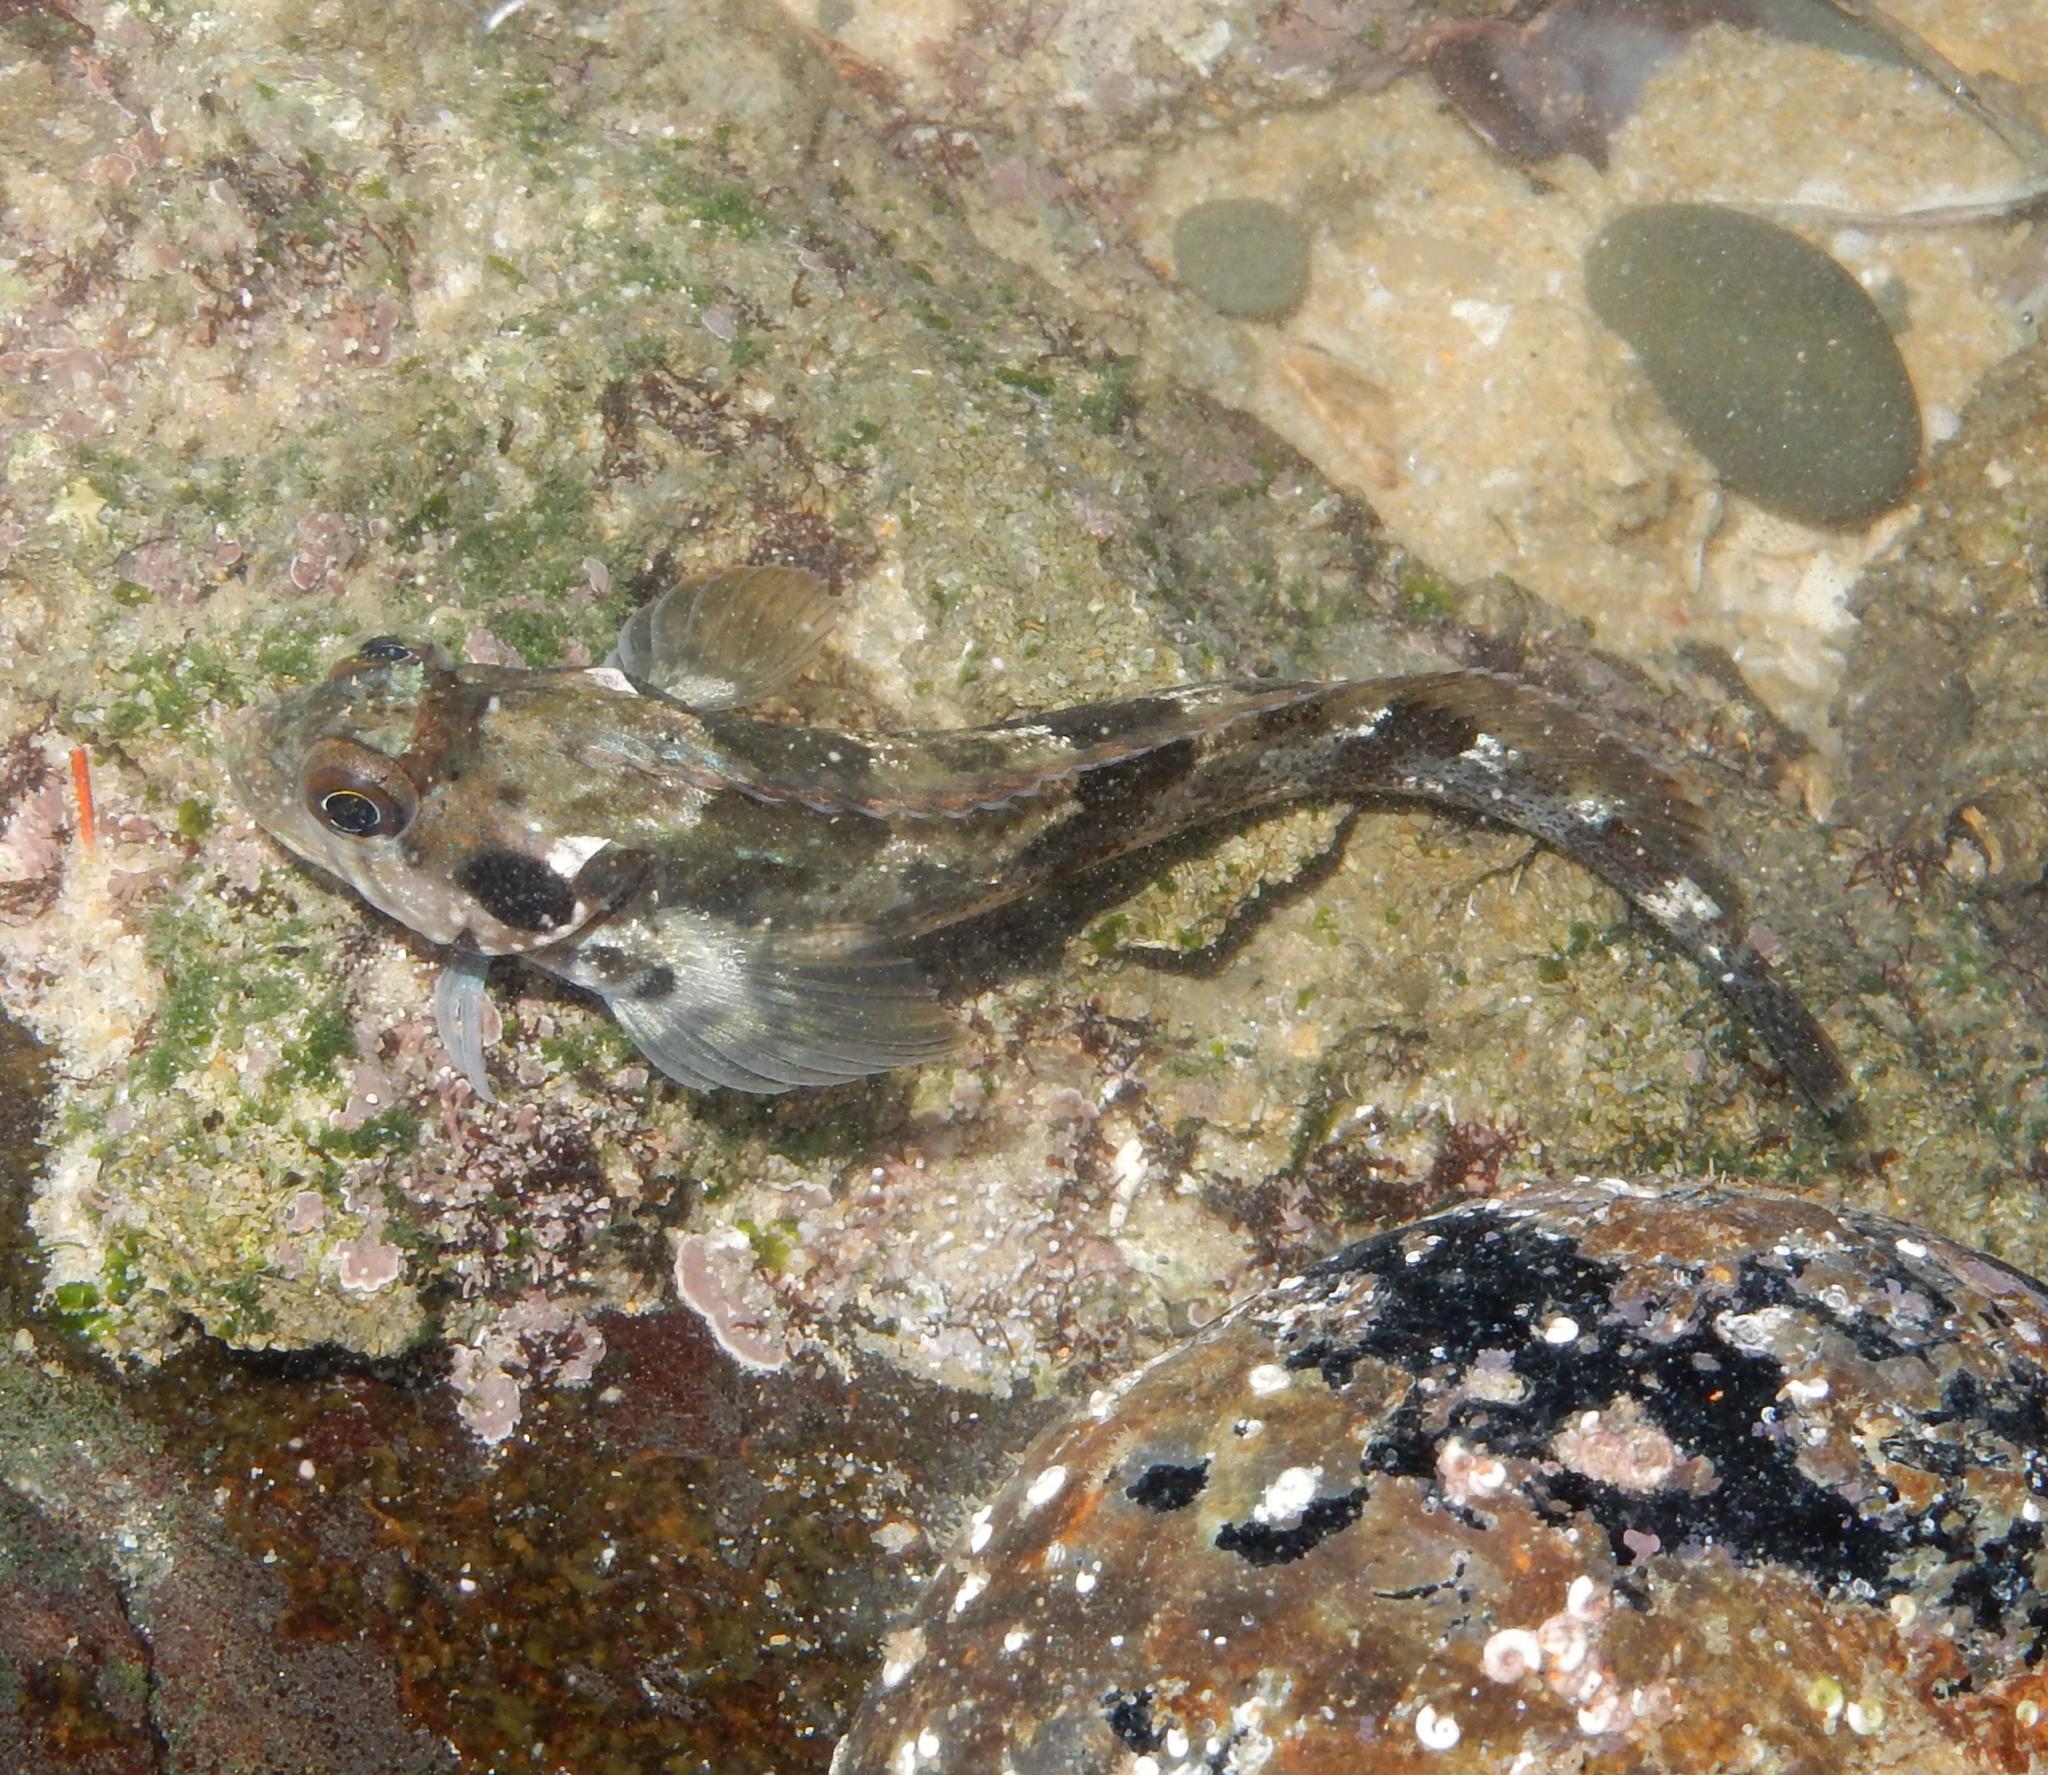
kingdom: Animalia
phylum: Chordata
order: Perciformes
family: Clinidae
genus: Clinus
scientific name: Clinus cottoides
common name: Bluntnose klipfish
